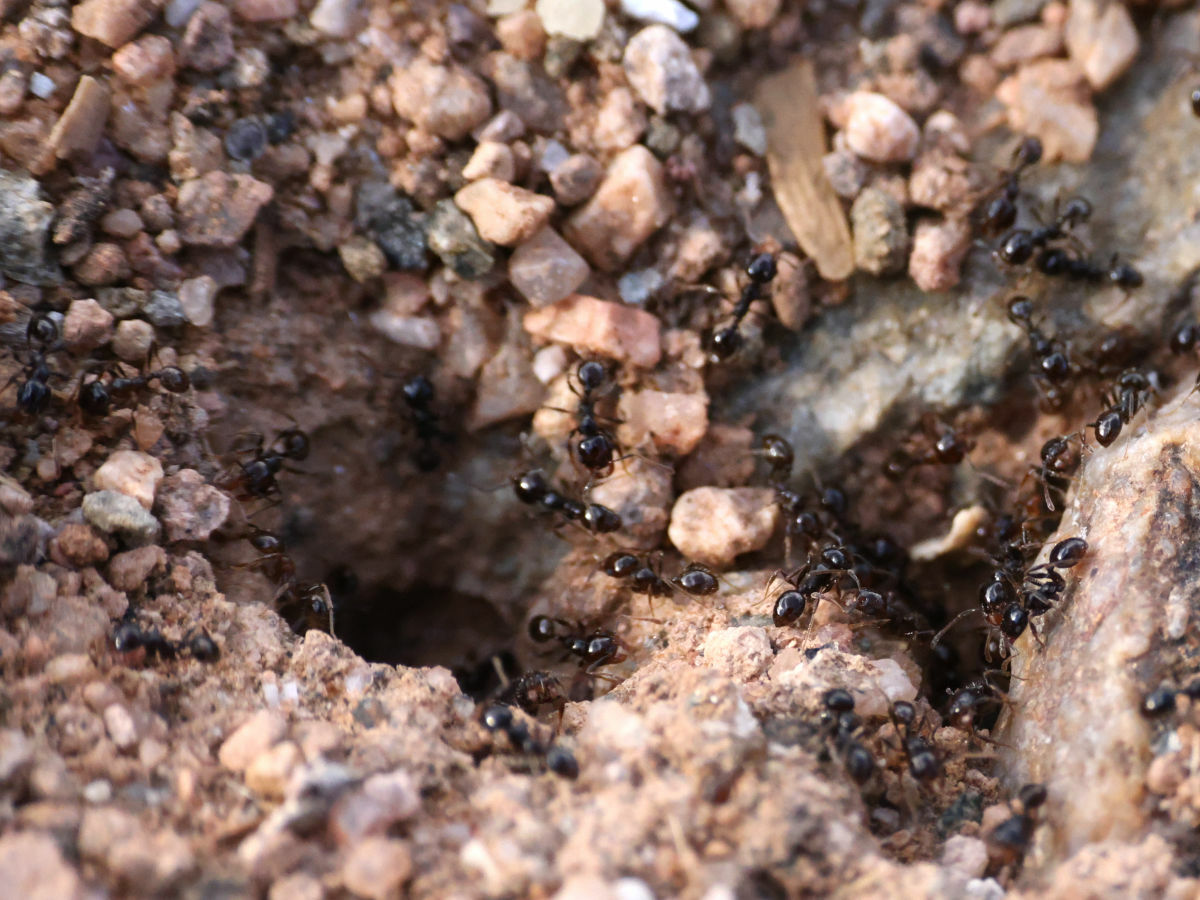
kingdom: Animalia
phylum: Arthropoda
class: Insecta
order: Hymenoptera
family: Formicidae
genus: Pheidole
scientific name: Pheidole xerophila
